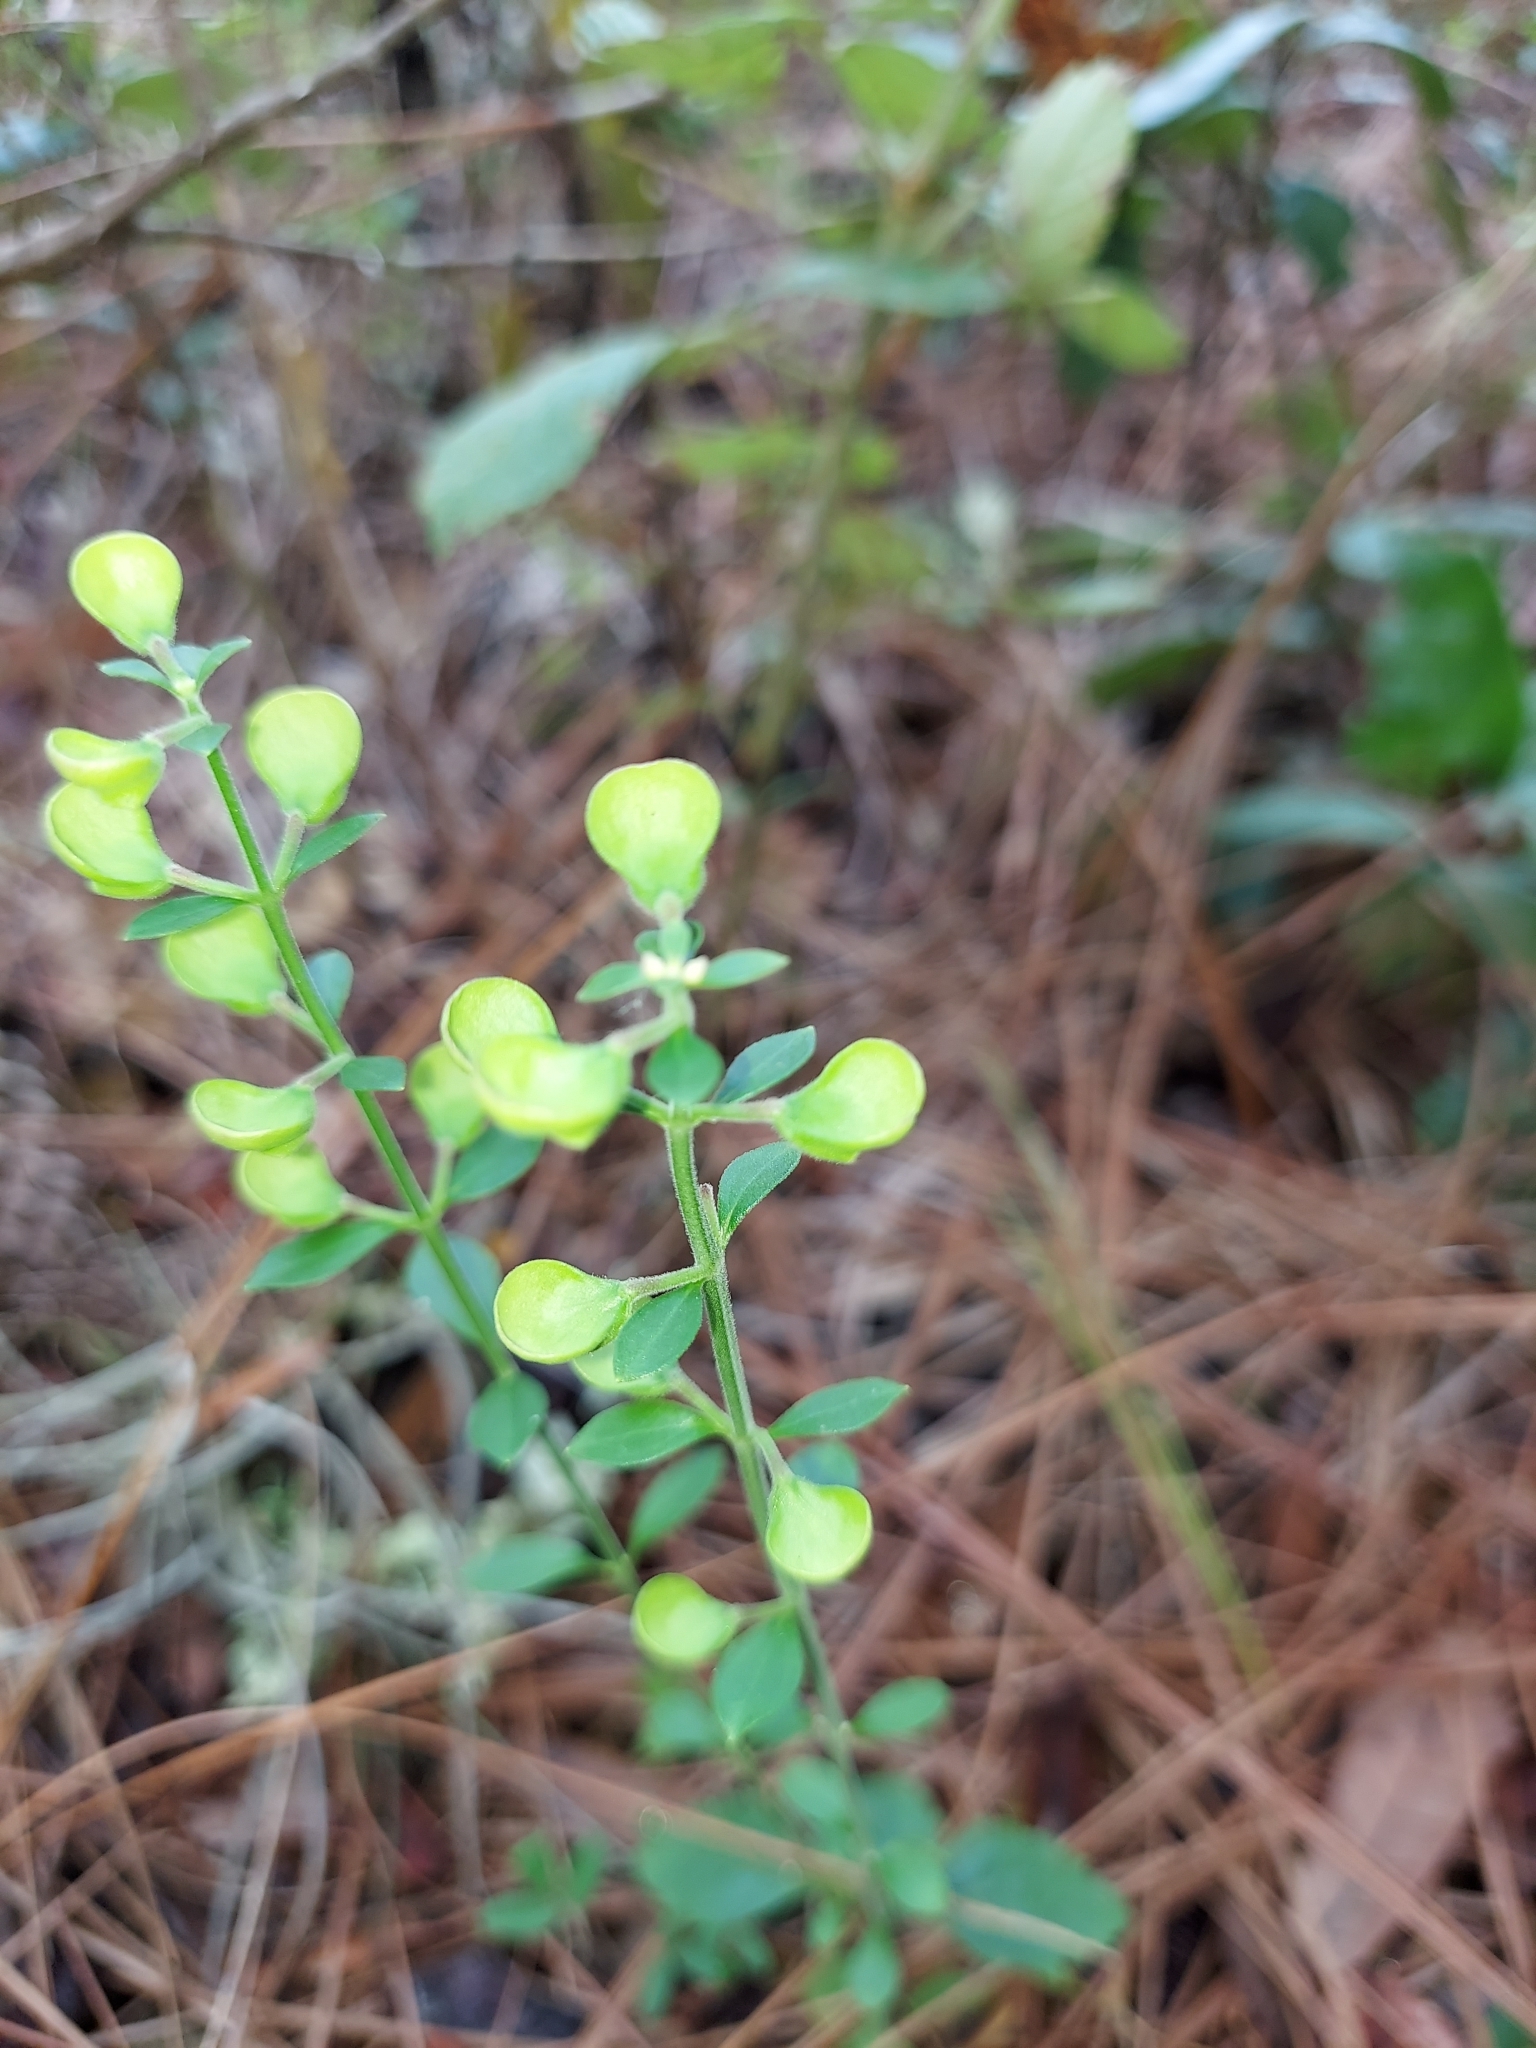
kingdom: Plantae
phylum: Tracheophyta
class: Magnoliopsida
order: Lamiales
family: Lamiaceae
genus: Scutellaria
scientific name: Scutellaria arenicola
